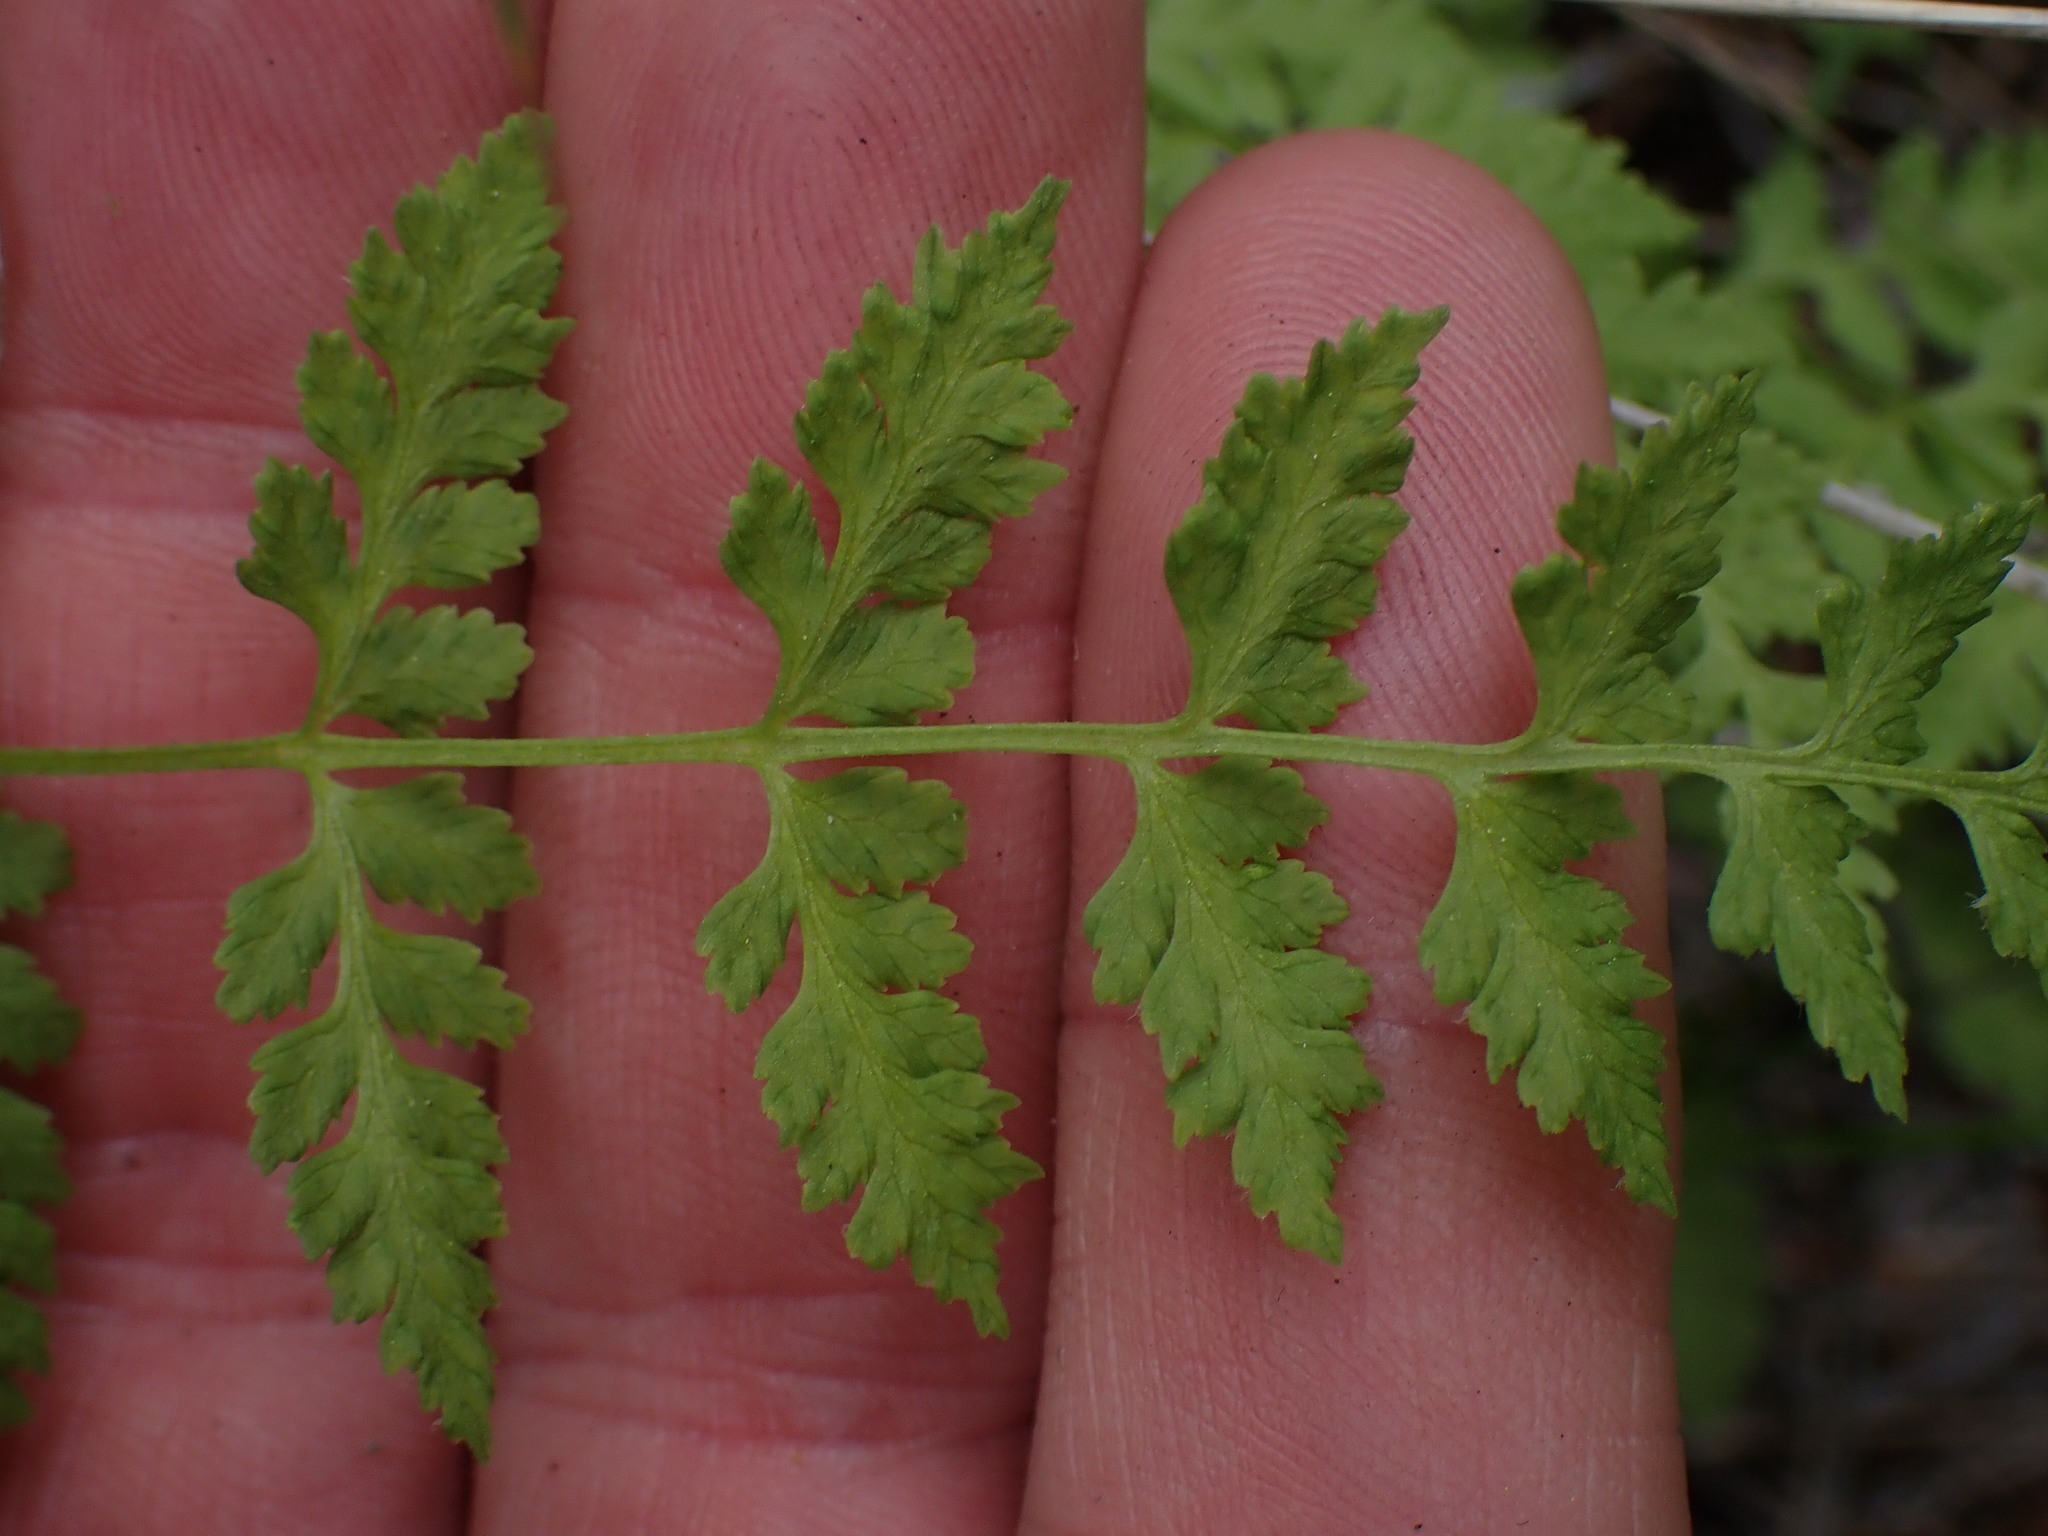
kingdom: Plantae
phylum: Tracheophyta
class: Polypodiopsida
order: Polypodiales
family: Cystopteridaceae
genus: Cystopteris
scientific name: Cystopteris fragilis
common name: Brittle bladder fern
